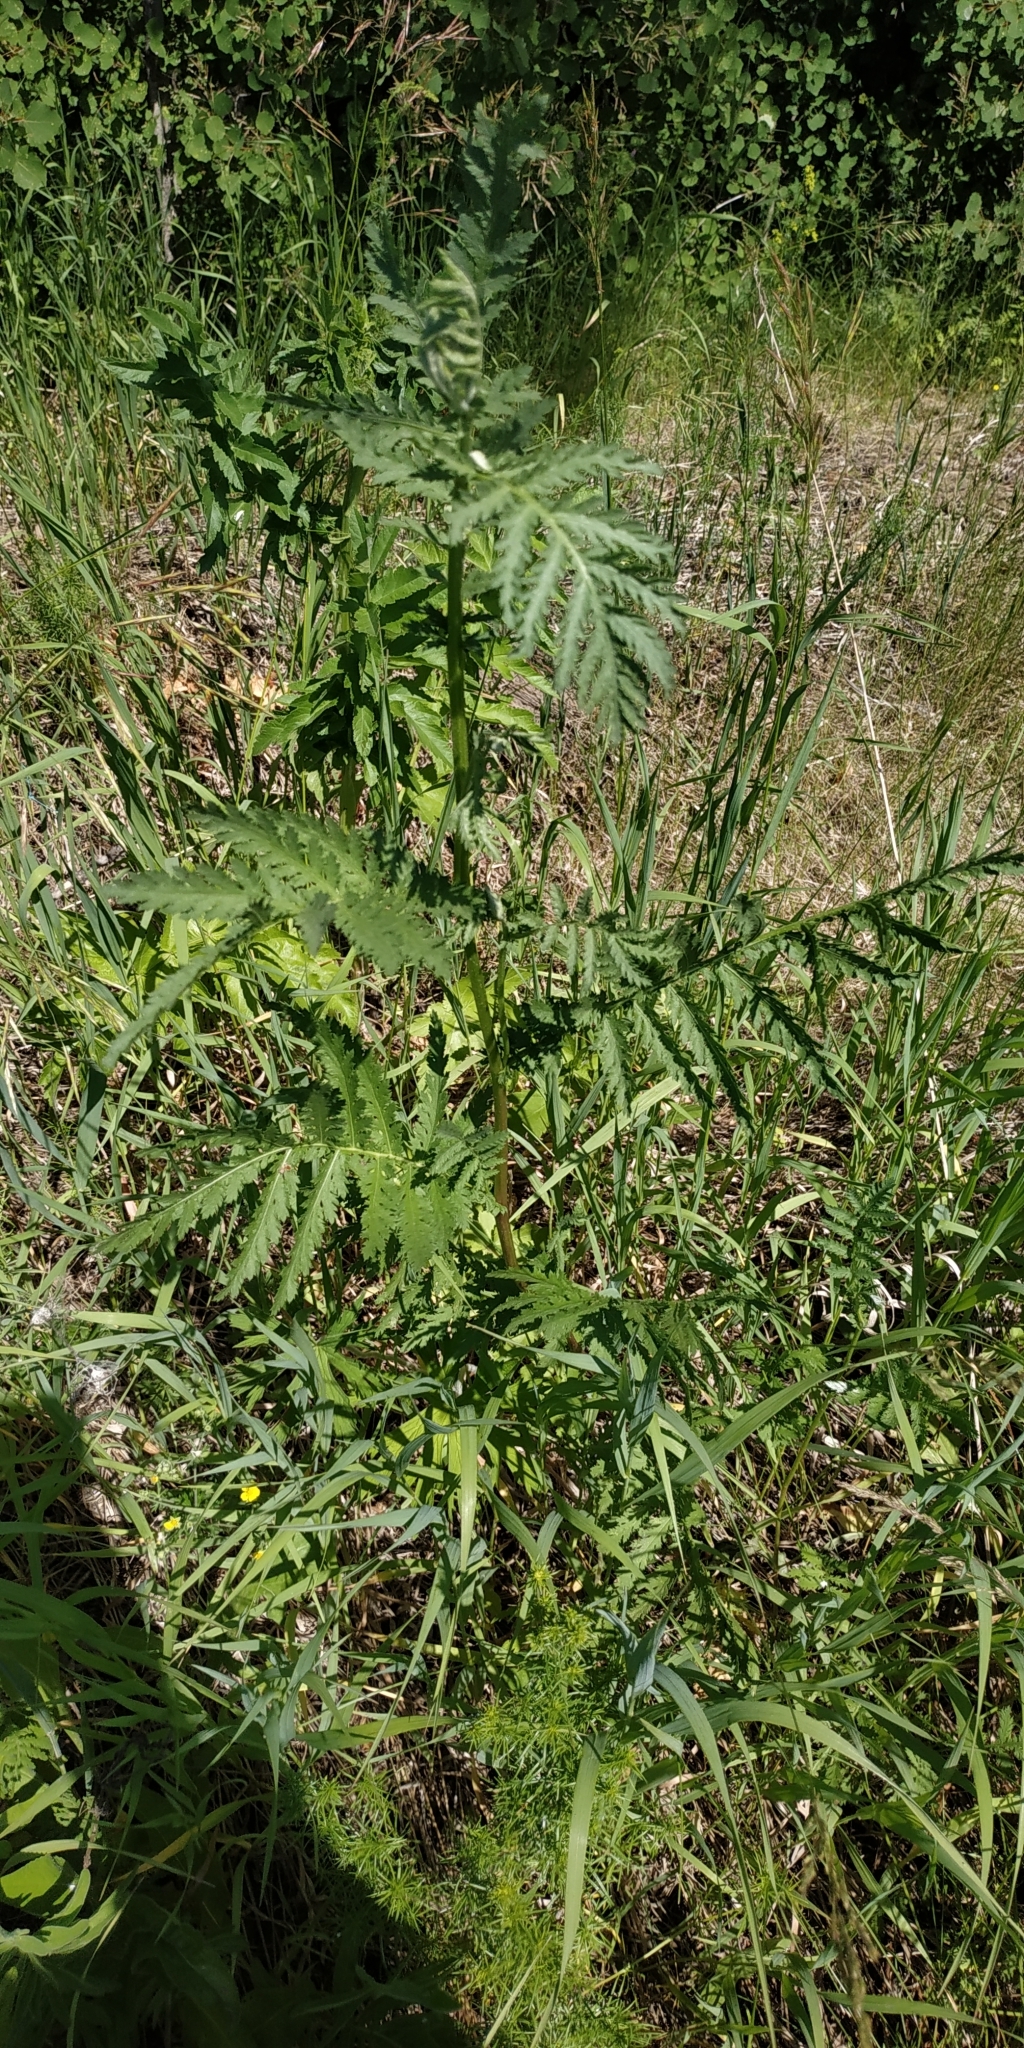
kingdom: Plantae
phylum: Tracheophyta
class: Magnoliopsida
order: Asterales
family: Asteraceae
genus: Tanacetum
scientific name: Tanacetum vulgare
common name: Common tansy
